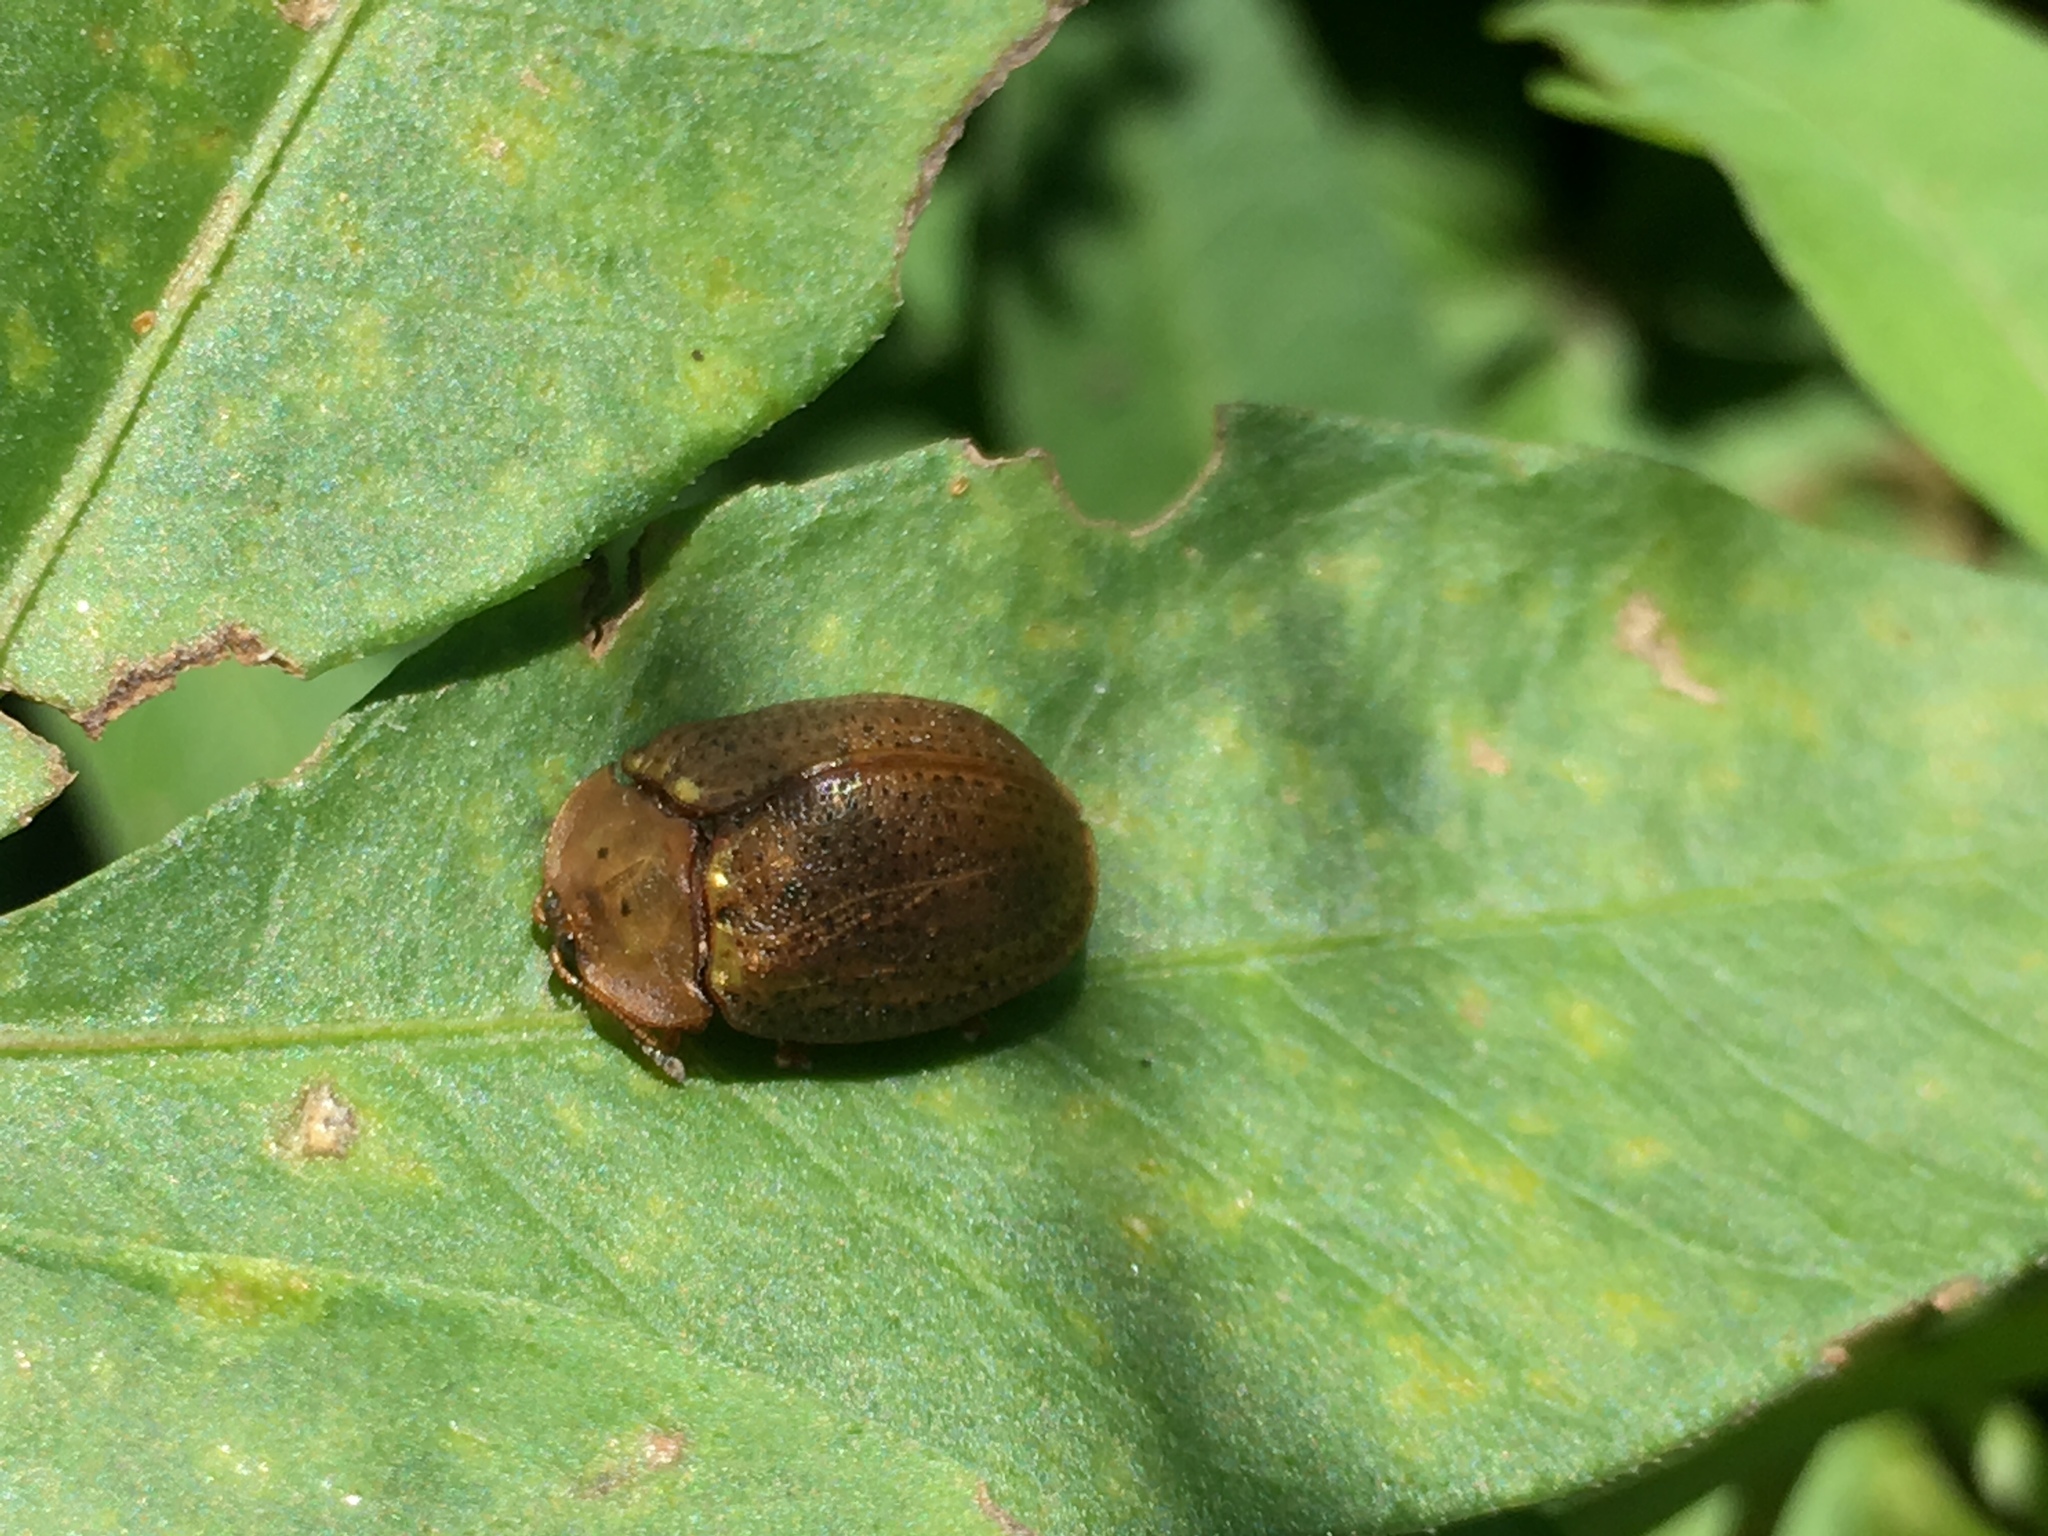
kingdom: Animalia
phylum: Arthropoda
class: Insecta
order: Coleoptera
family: Chrysomelidae
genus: Chelymorpha
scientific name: Chelymorpha indigesta
